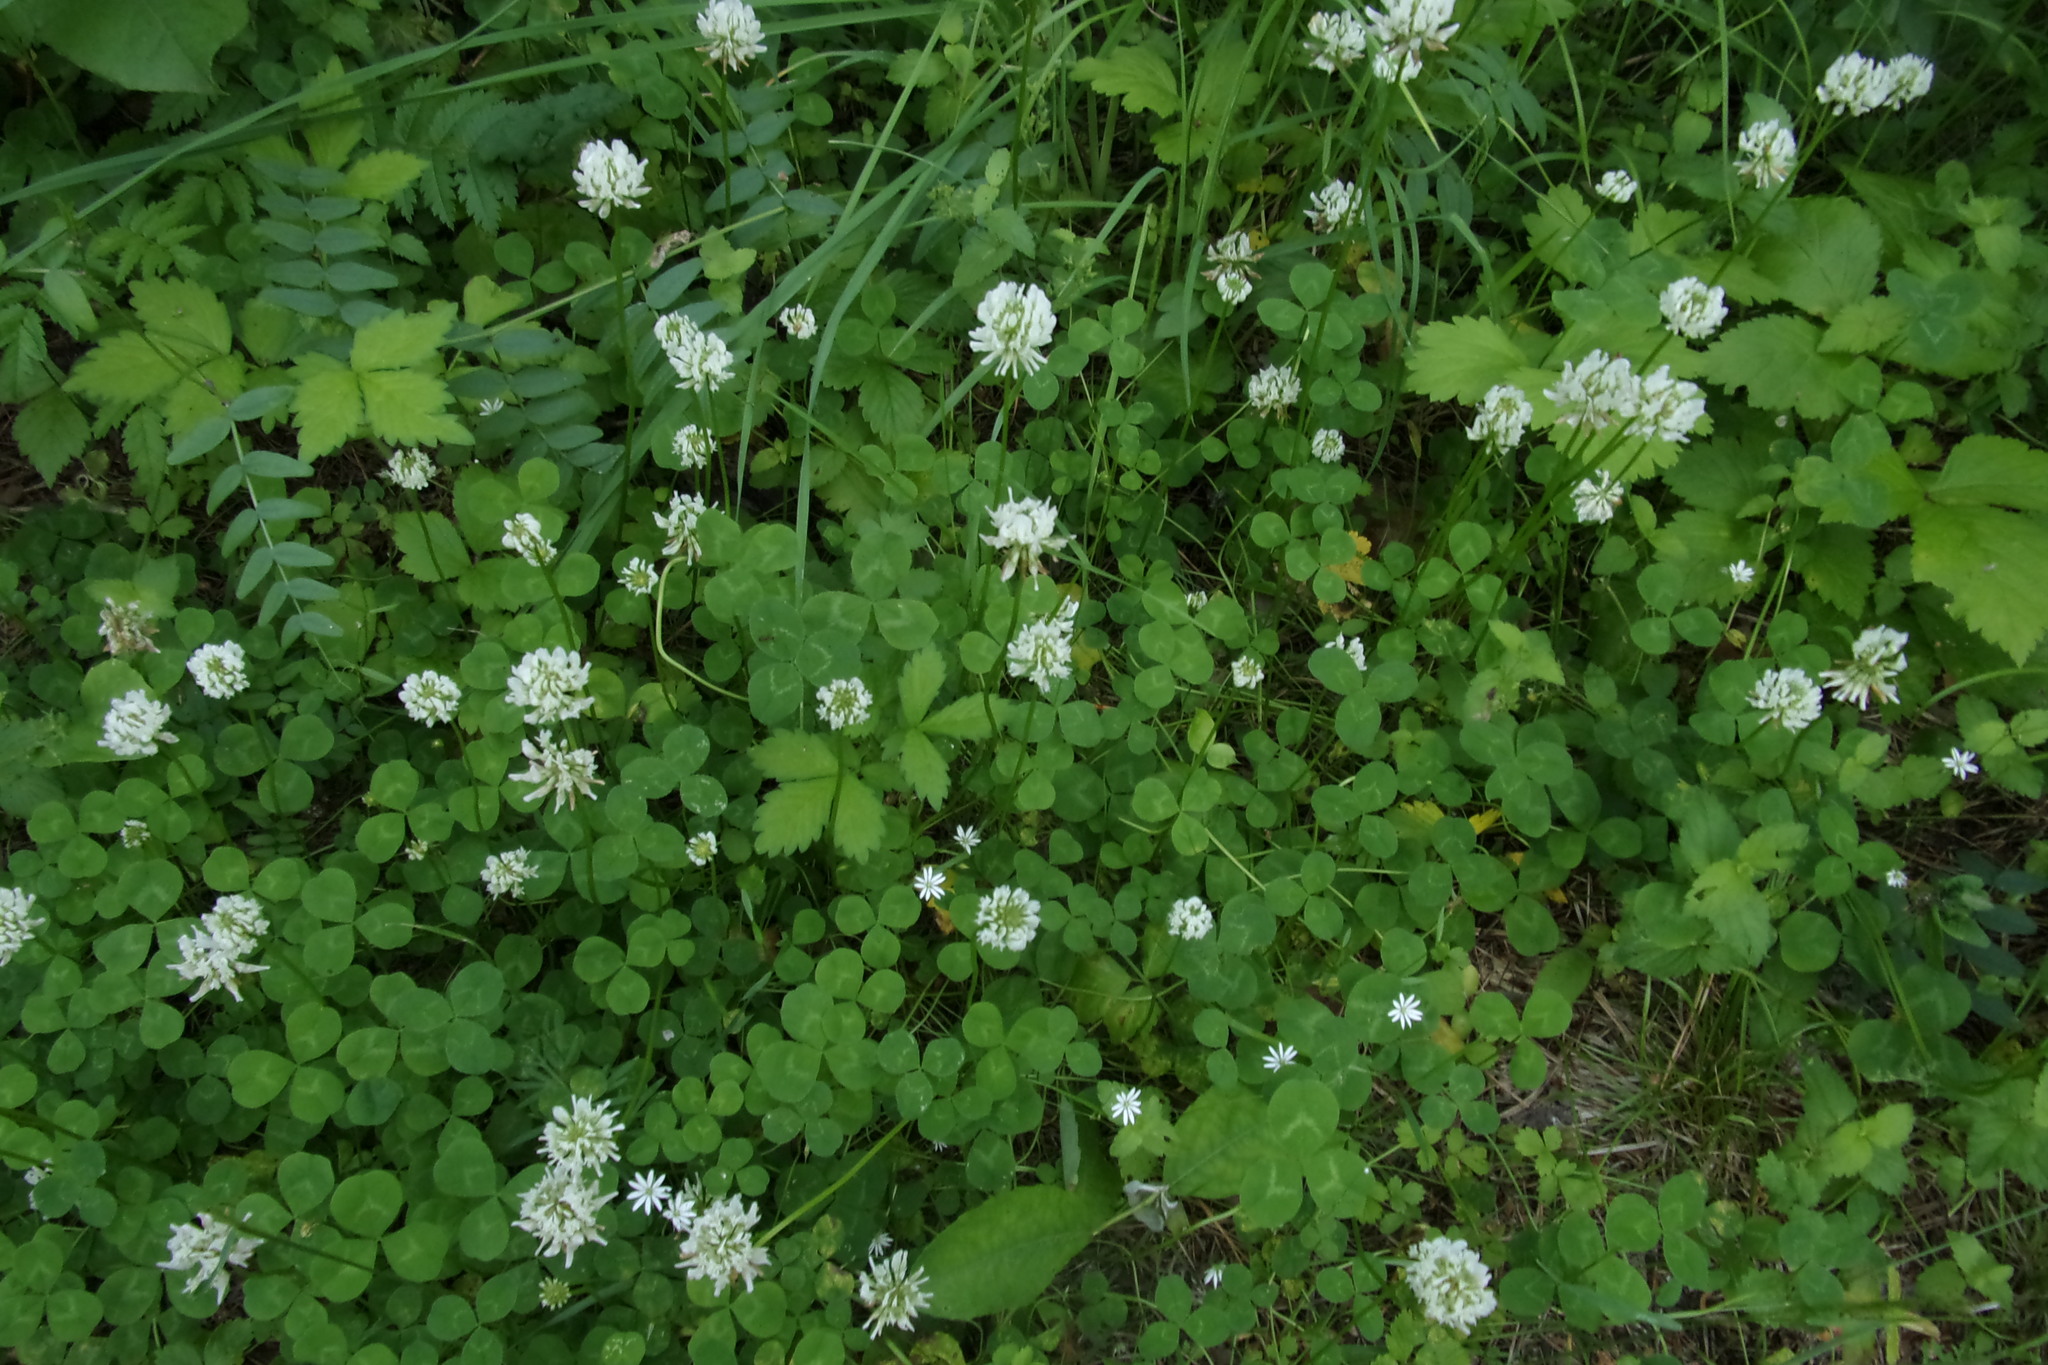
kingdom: Plantae
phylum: Tracheophyta
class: Magnoliopsida
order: Fabales
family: Fabaceae
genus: Trifolium
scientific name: Trifolium repens
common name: White clover
